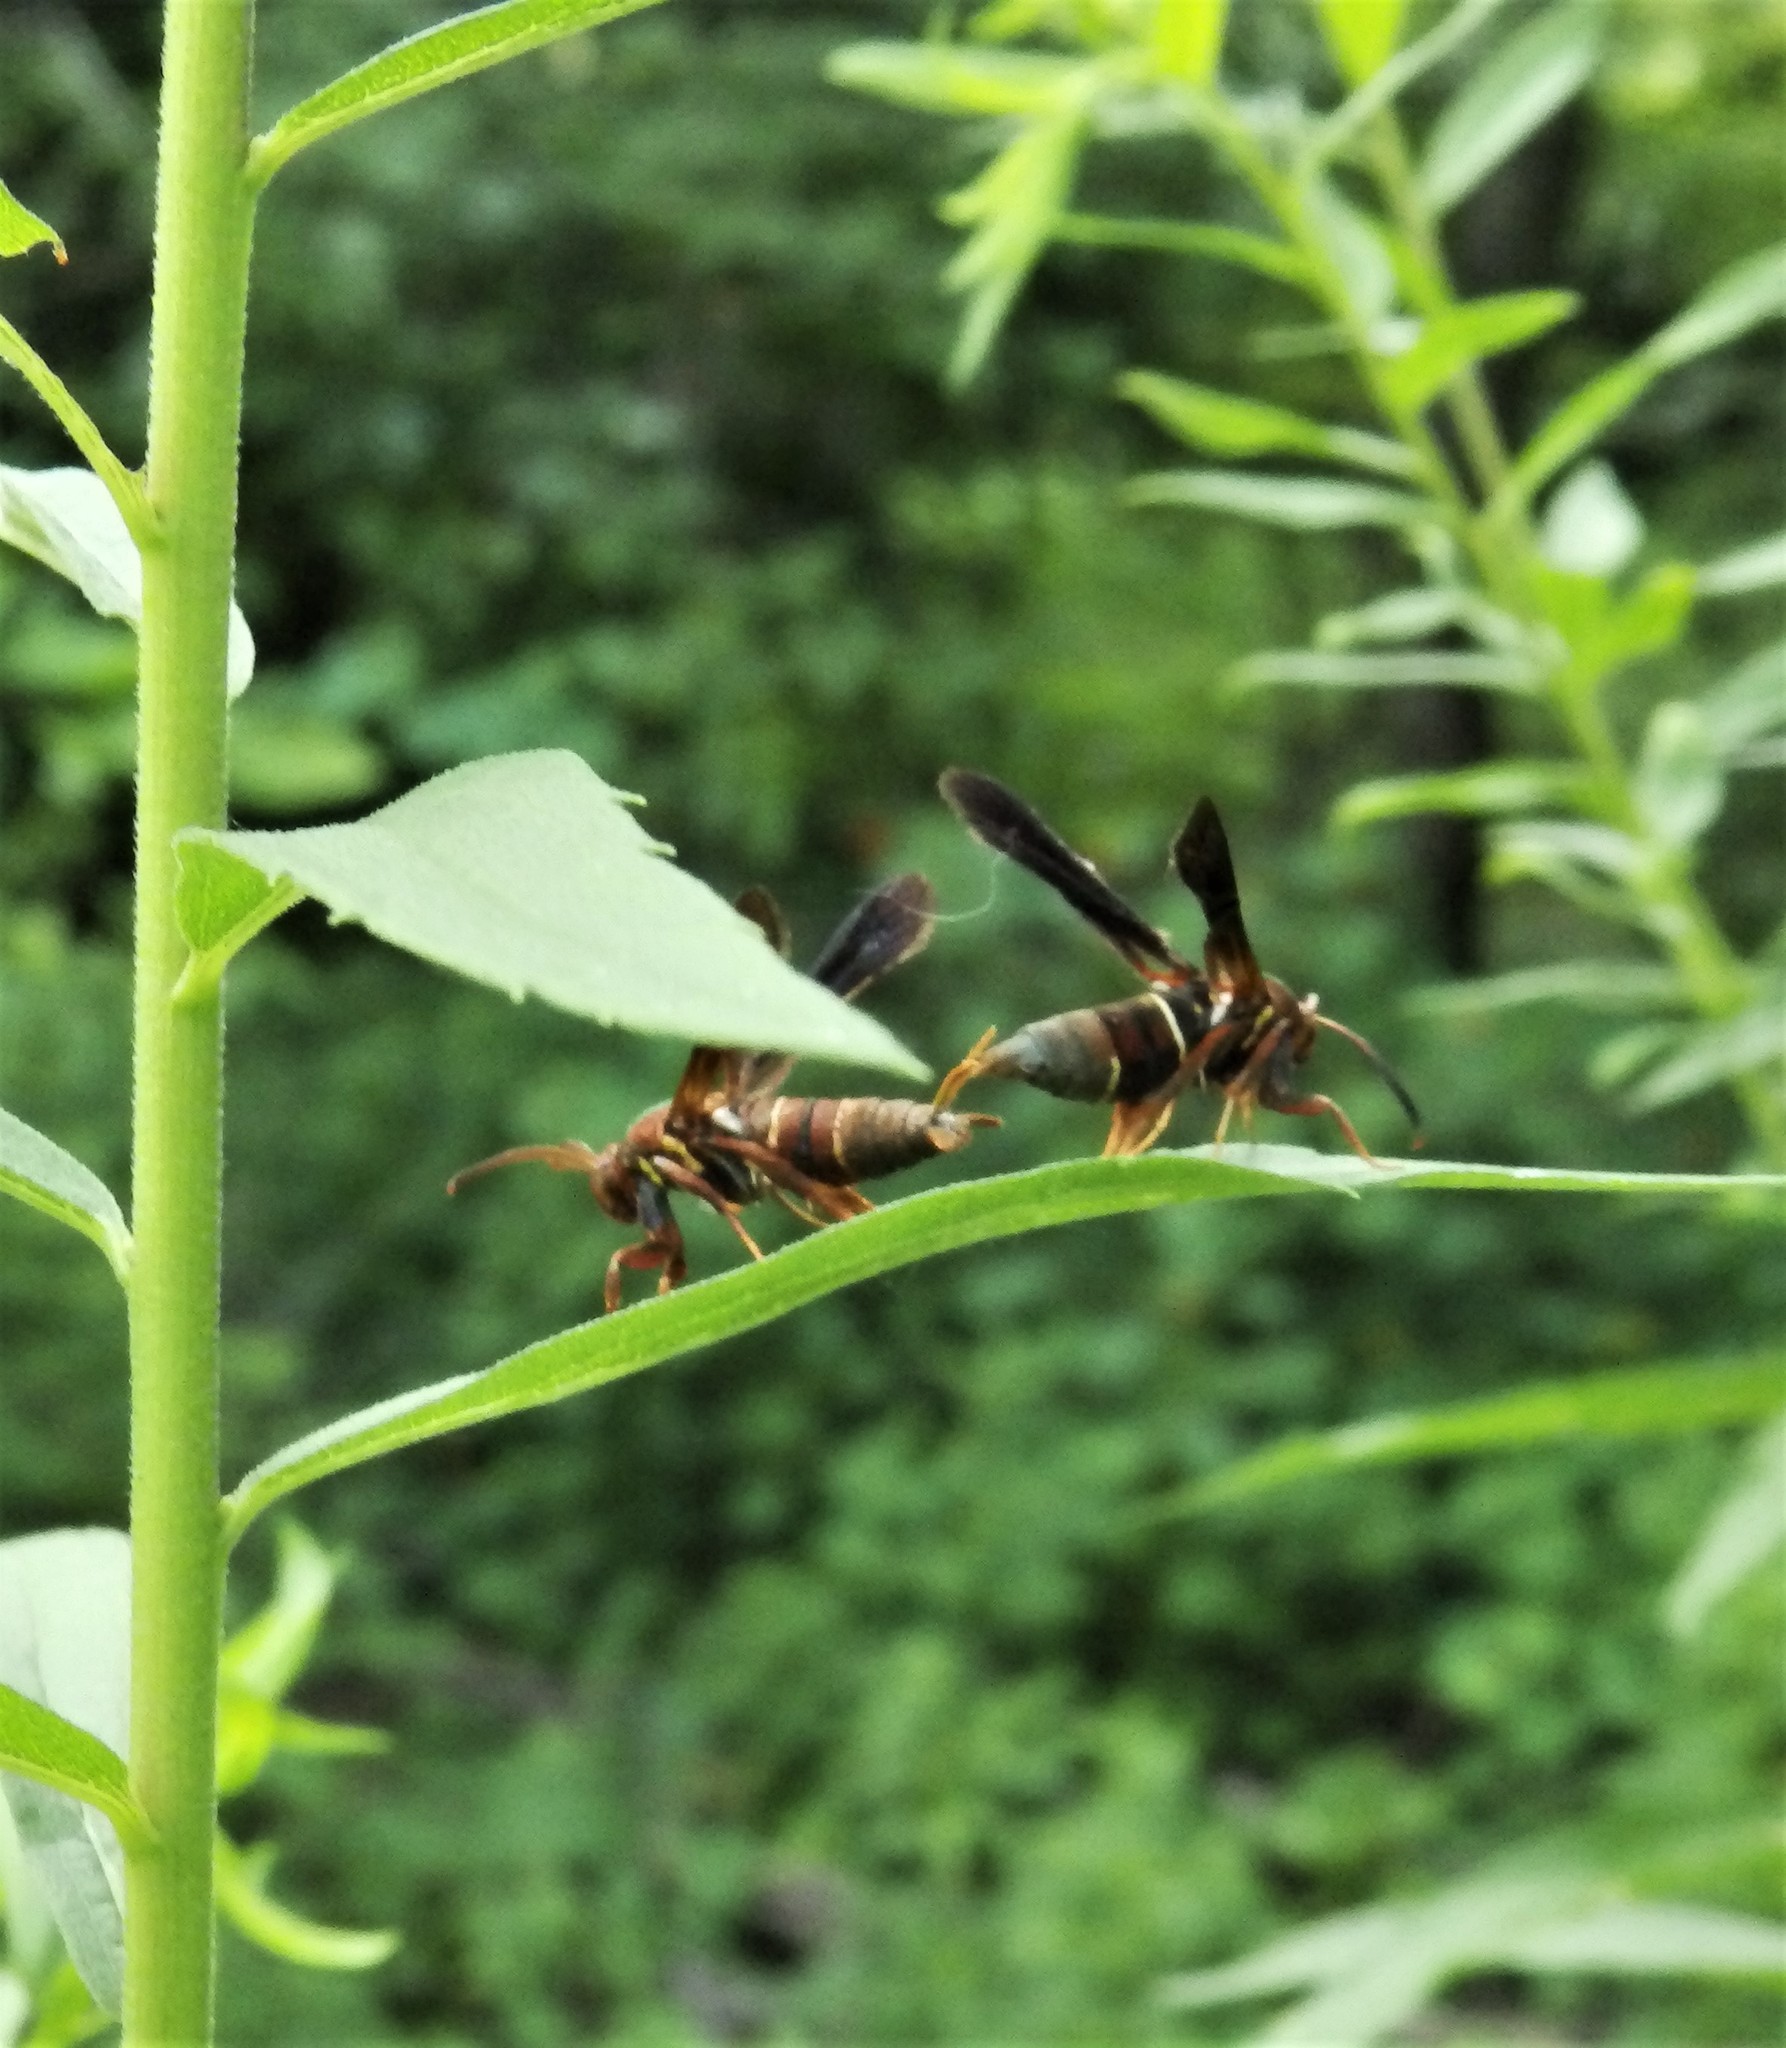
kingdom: Animalia
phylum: Arthropoda
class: Insecta
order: Lepidoptera
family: Sesiidae
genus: Vitacea
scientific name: Vitacea polistiformis
